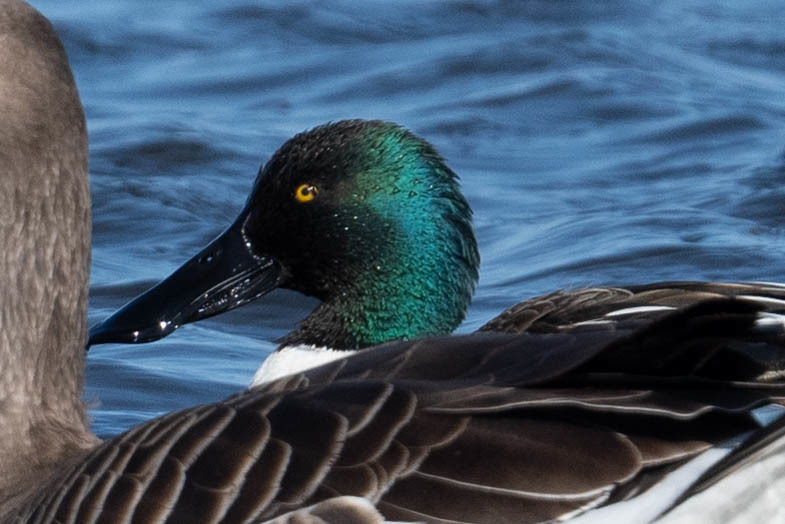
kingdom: Animalia
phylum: Chordata
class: Aves
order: Anseriformes
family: Anatidae
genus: Spatula
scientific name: Spatula clypeata
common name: Northern shoveler
